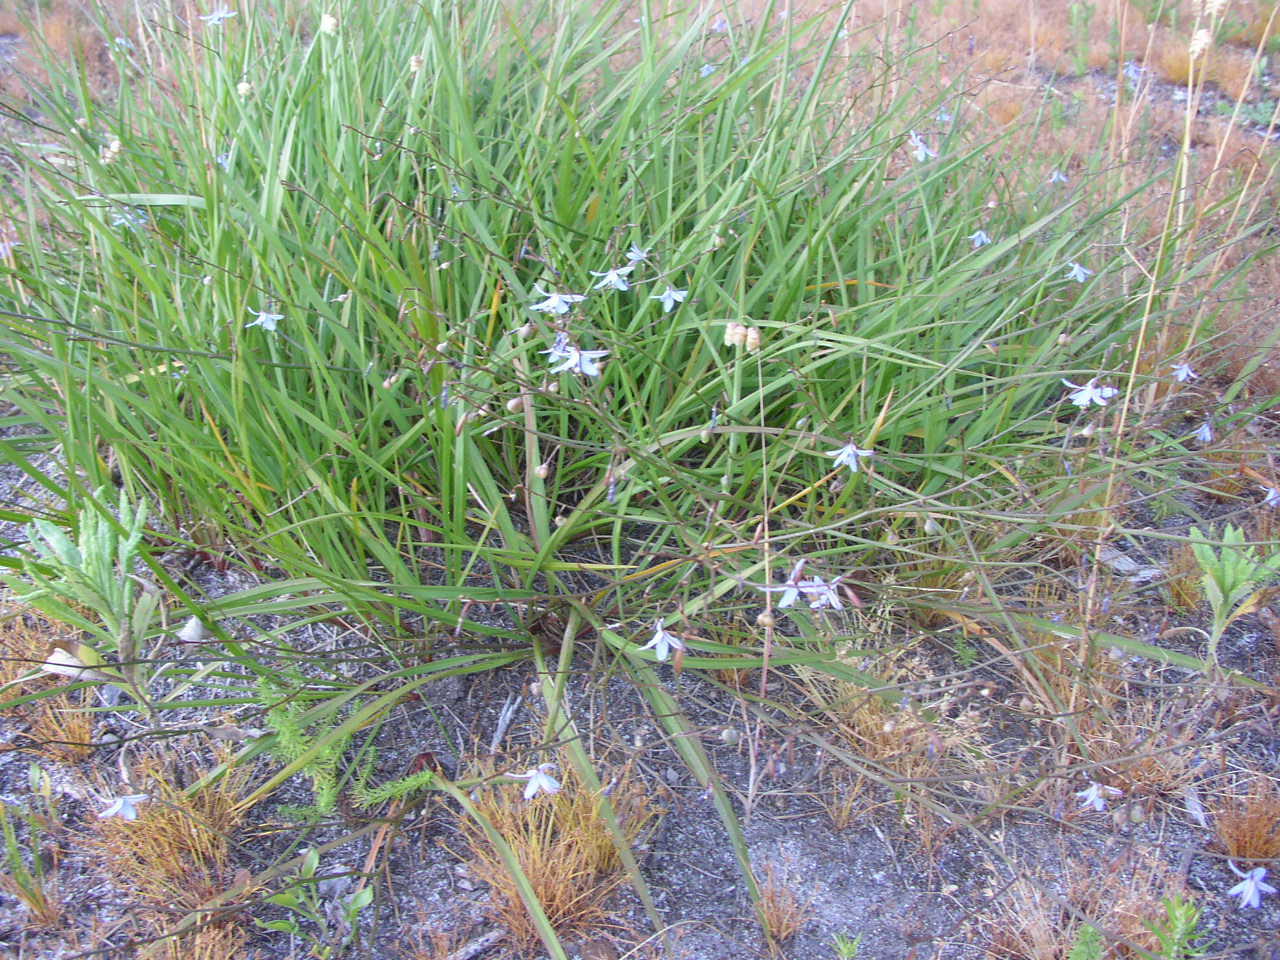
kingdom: Plantae
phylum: Tracheophyta
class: Liliopsida
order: Asparagales
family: Asphodelaceae
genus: Caesia
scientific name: Caesia contorta
